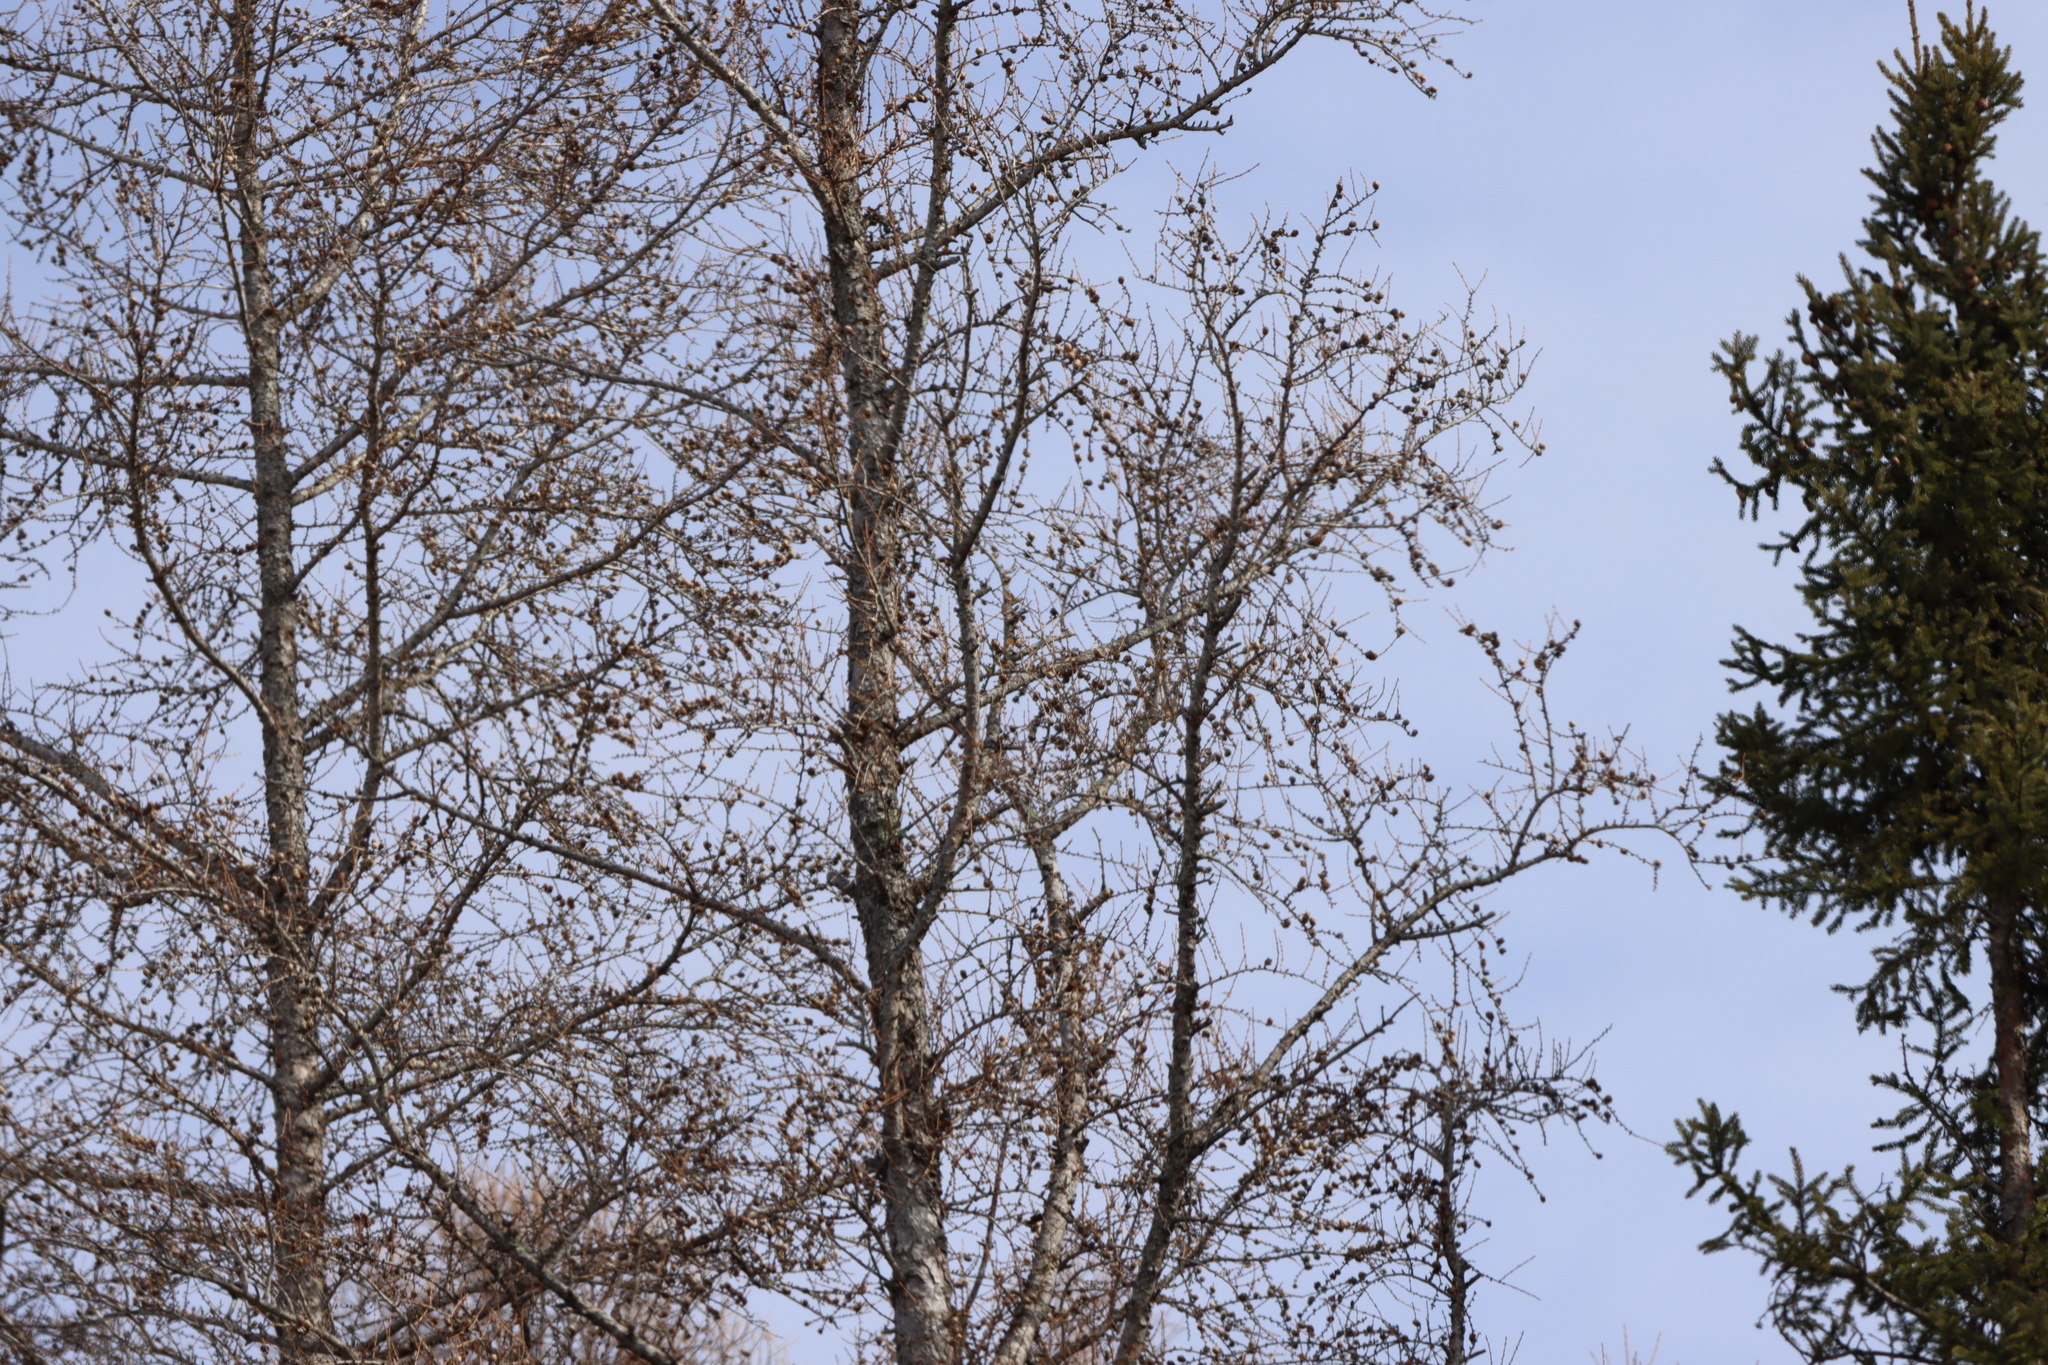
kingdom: Plantae
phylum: Tracheophyta
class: Pinopsida
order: Pinales
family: Pinaceae
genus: Larix
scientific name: Larix laricina
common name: American larch
